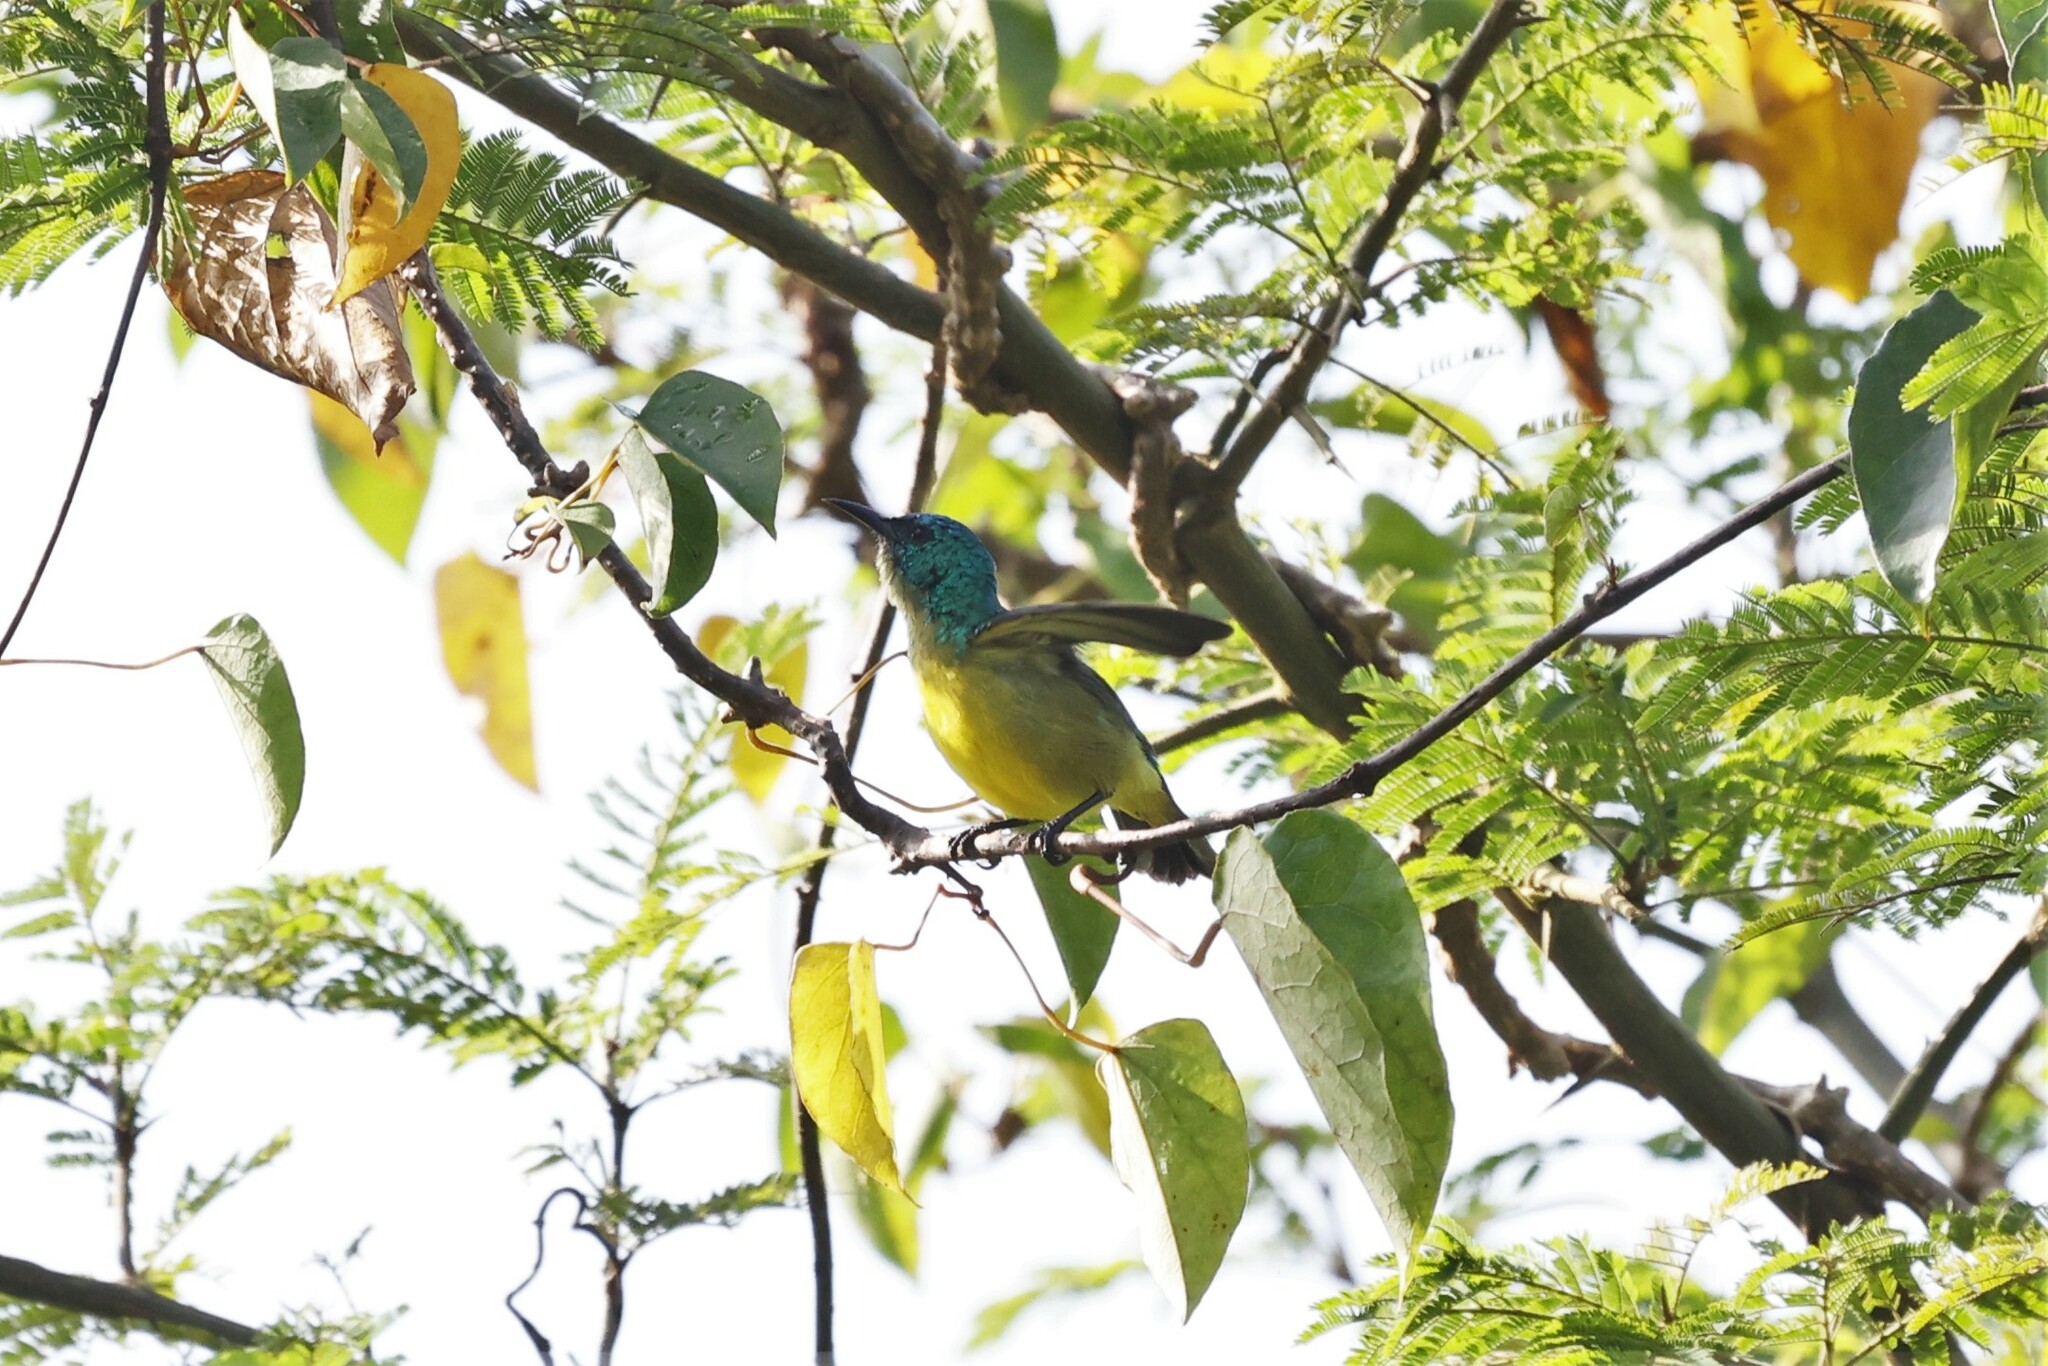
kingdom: Animalia
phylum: Chordata
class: Aves
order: Passeriformes
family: Nectariniidae
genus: Hedydipna
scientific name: Hedydipna collaris
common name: Collared sunbird
